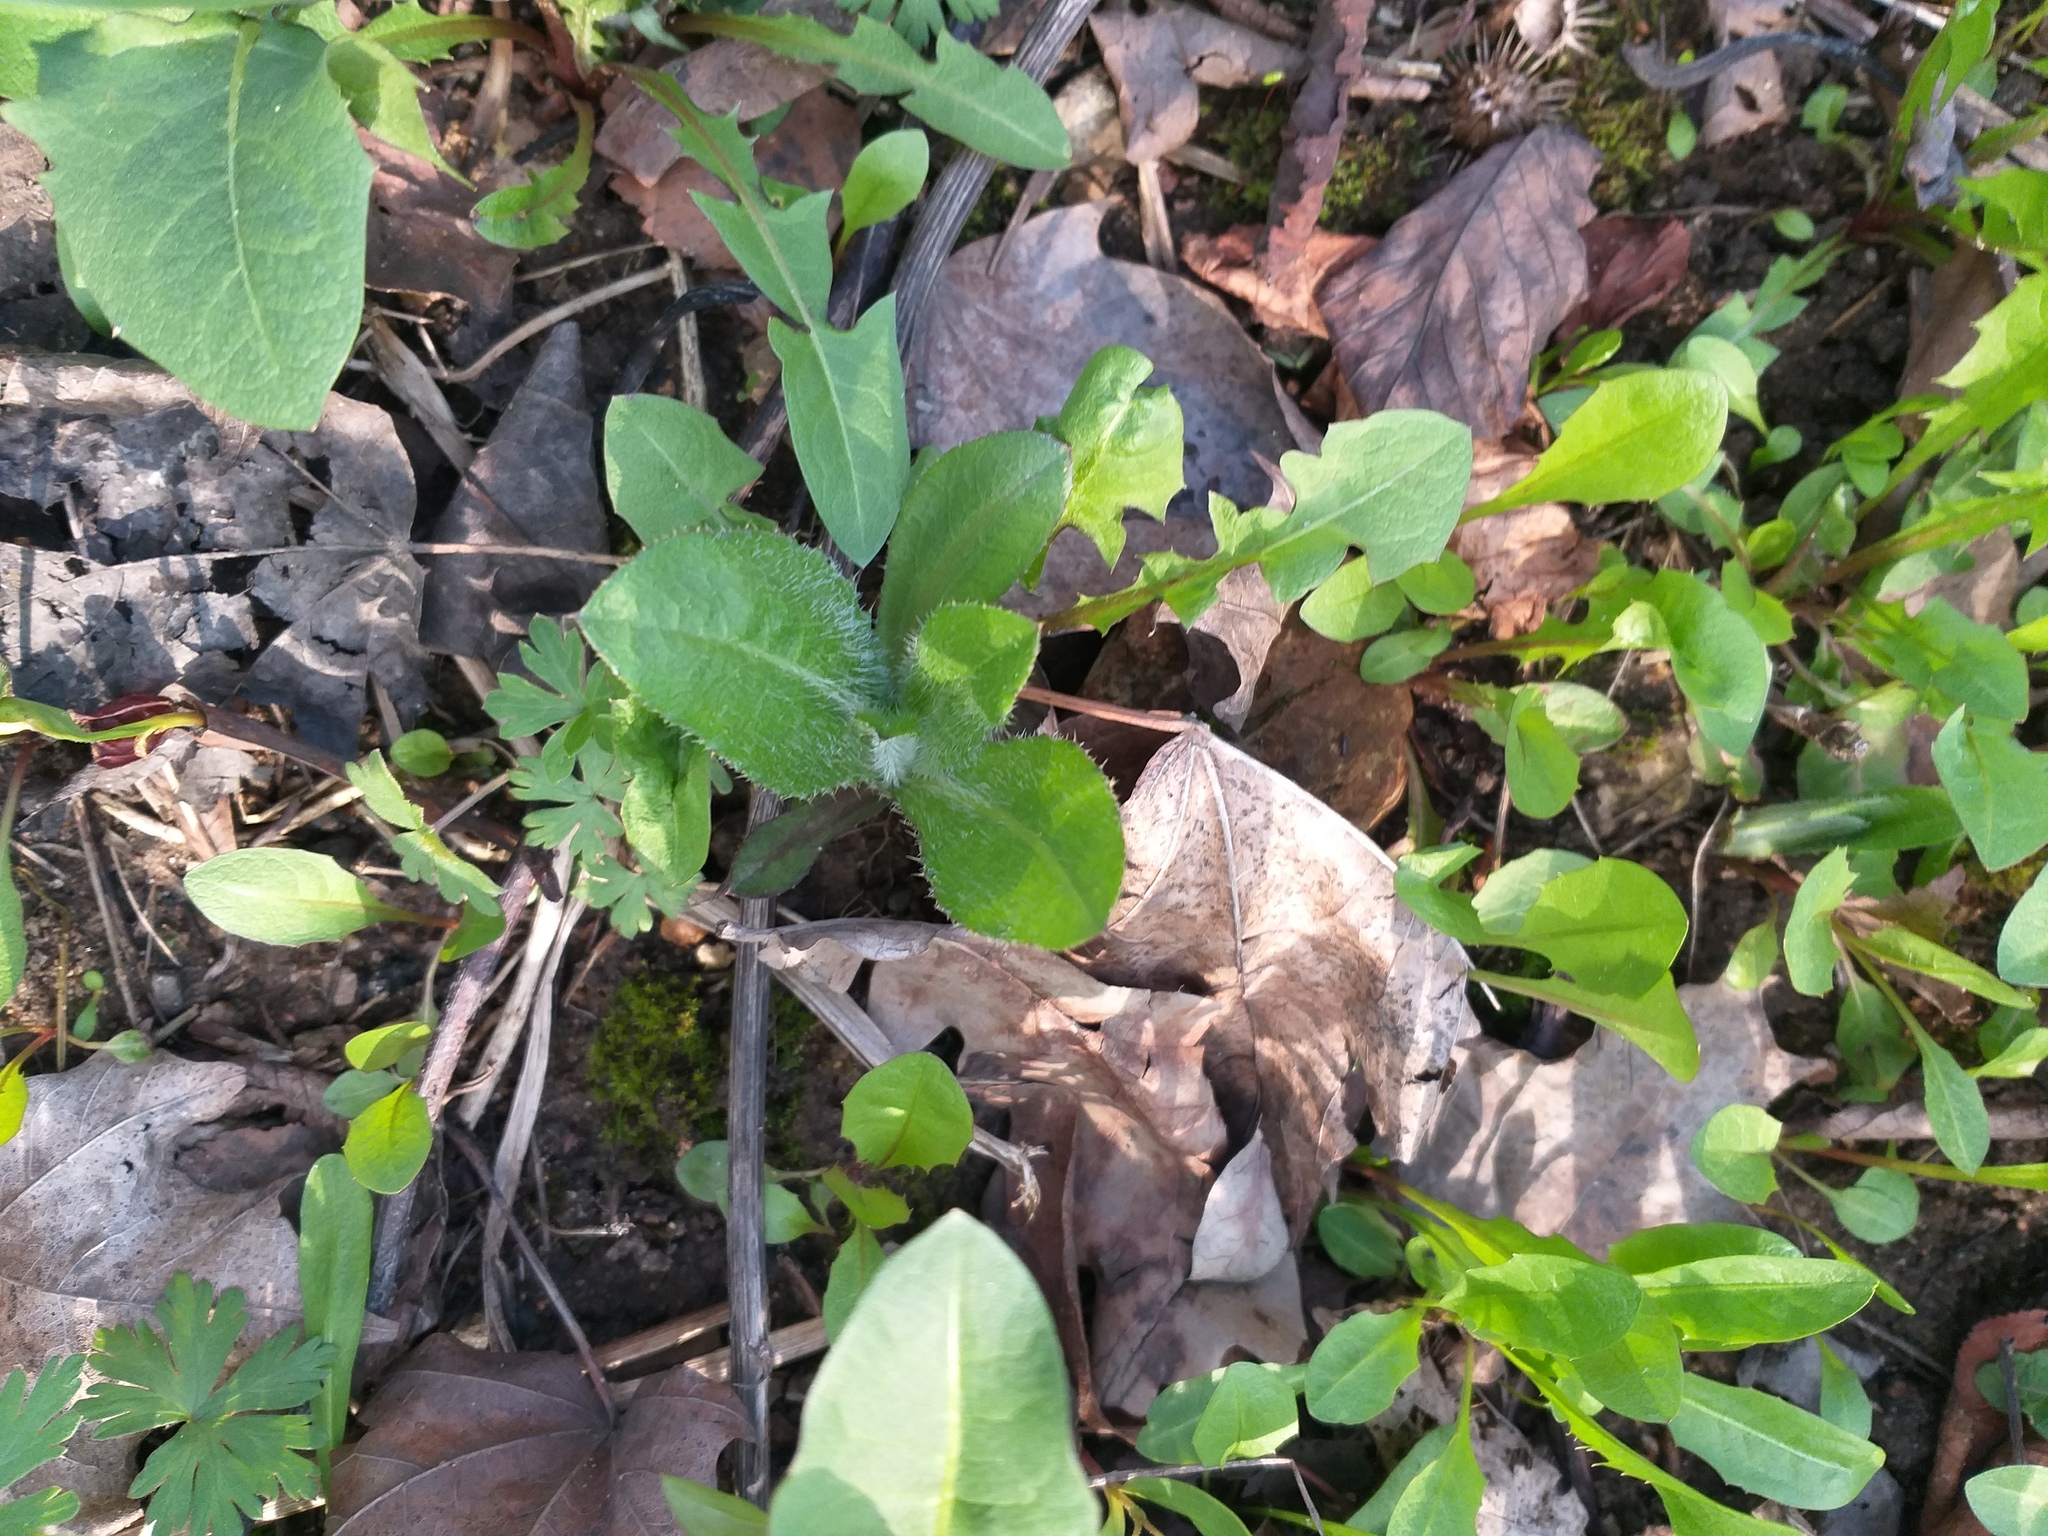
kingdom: Plantae
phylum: Tracheophyta
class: Magnoliopsida
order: Asterales
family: Asteraceae
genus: Cirsium
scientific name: Cirsium arvense
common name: Creeping thistle
